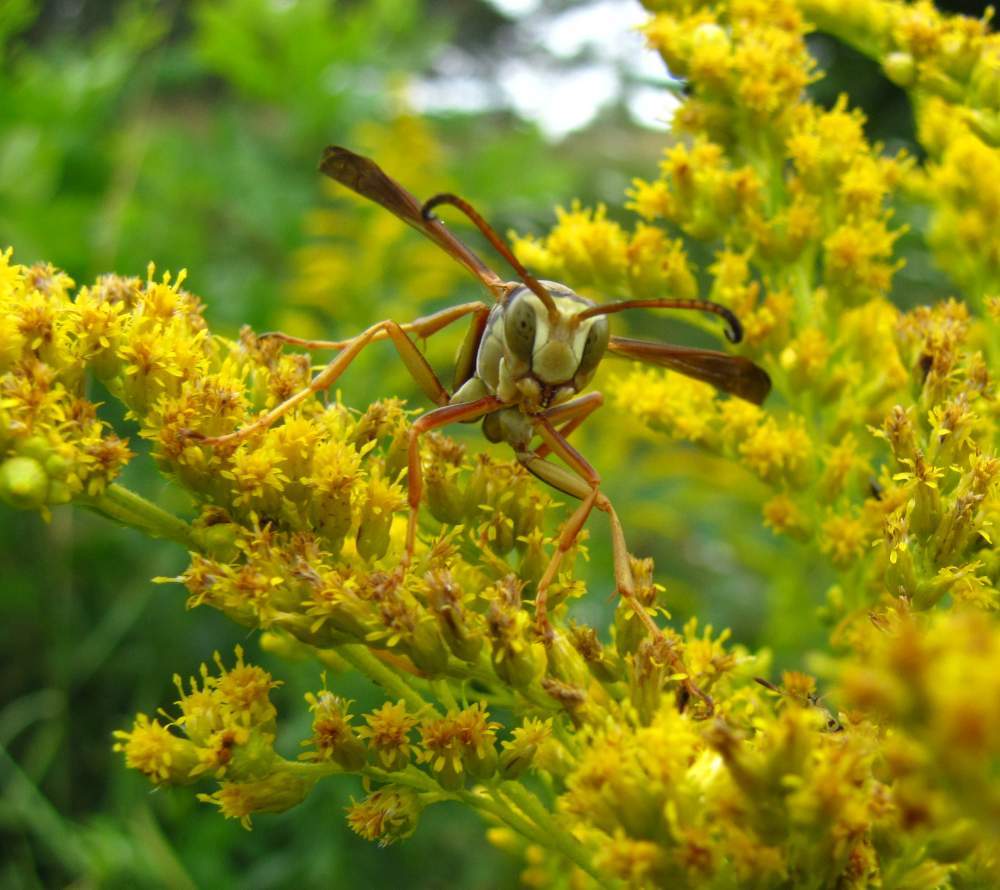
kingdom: Animalia
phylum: Arthropoda
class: Insecta
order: Hymenoptera
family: Eumenidae
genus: Polistes
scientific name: Polistes fuscatus
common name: Dark paper wasp
